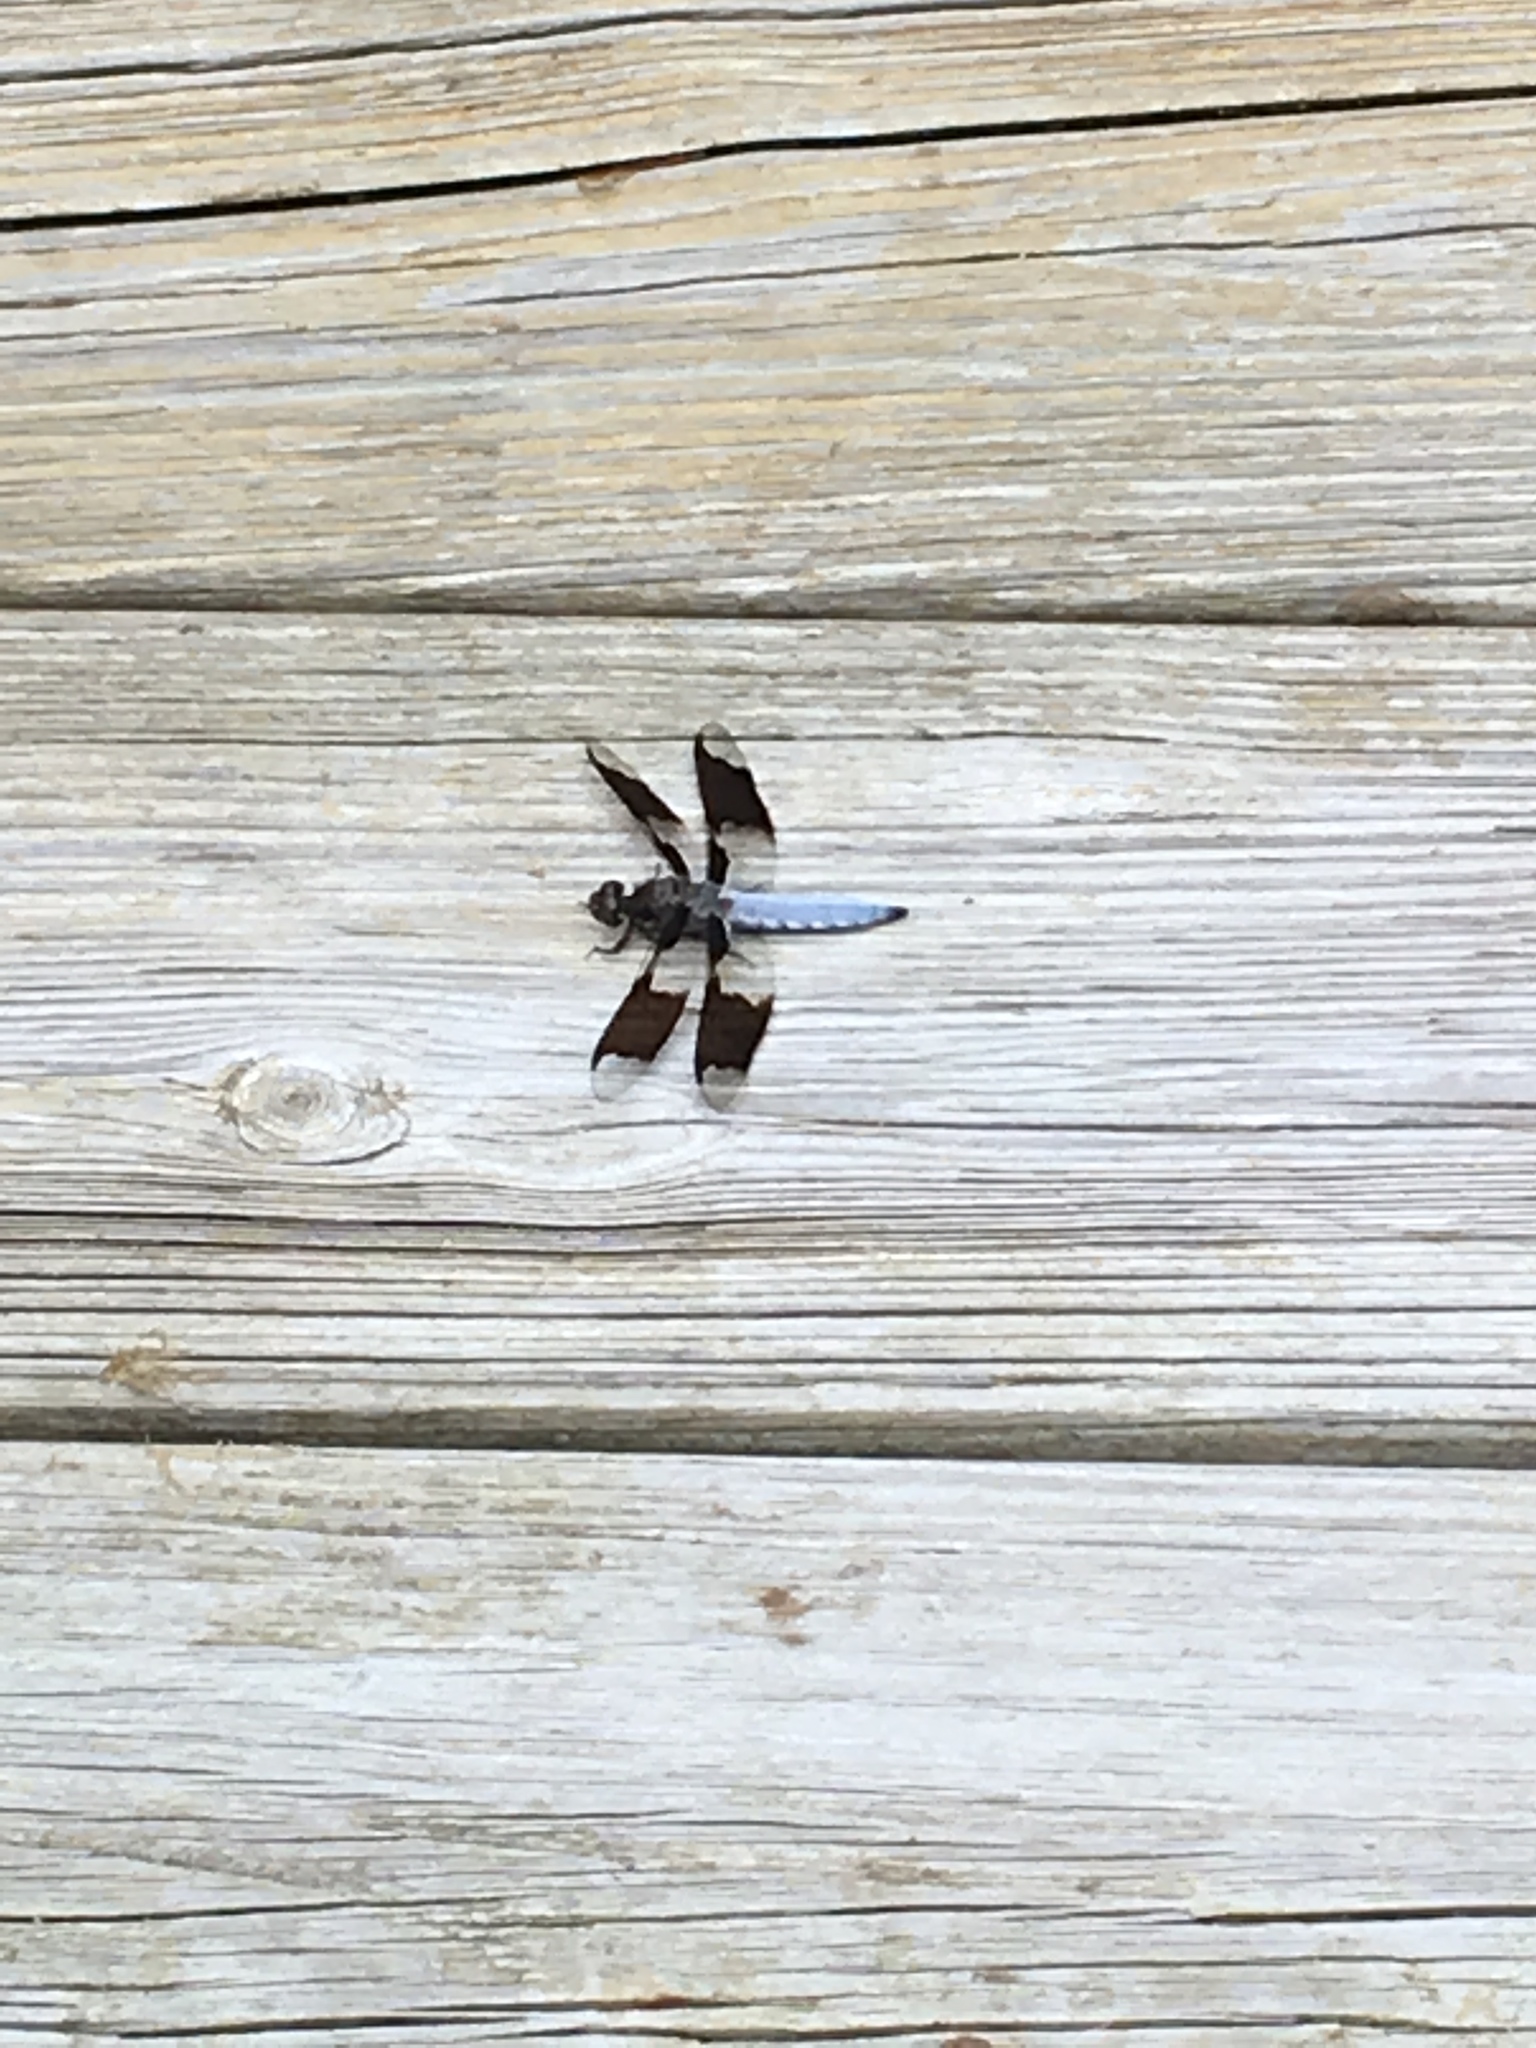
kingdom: Animalia
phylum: Arthropoda
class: Insecta
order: Odonata
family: Libellulidae
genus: Plathemis
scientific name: Plathemis lydia
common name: Common whitetail
